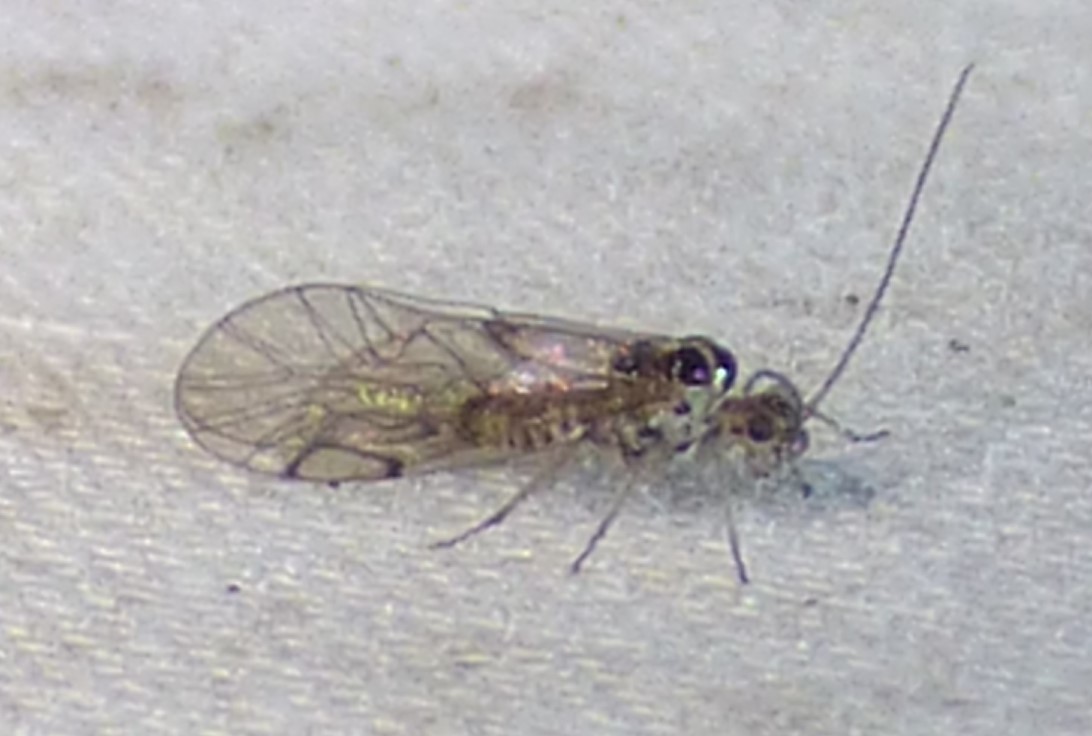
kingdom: Animalia
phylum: Arthropoda
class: Insecta
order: Psocodea
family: Dasydemellidae
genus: Teliapsocus
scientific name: Teliapsocus conterminus
